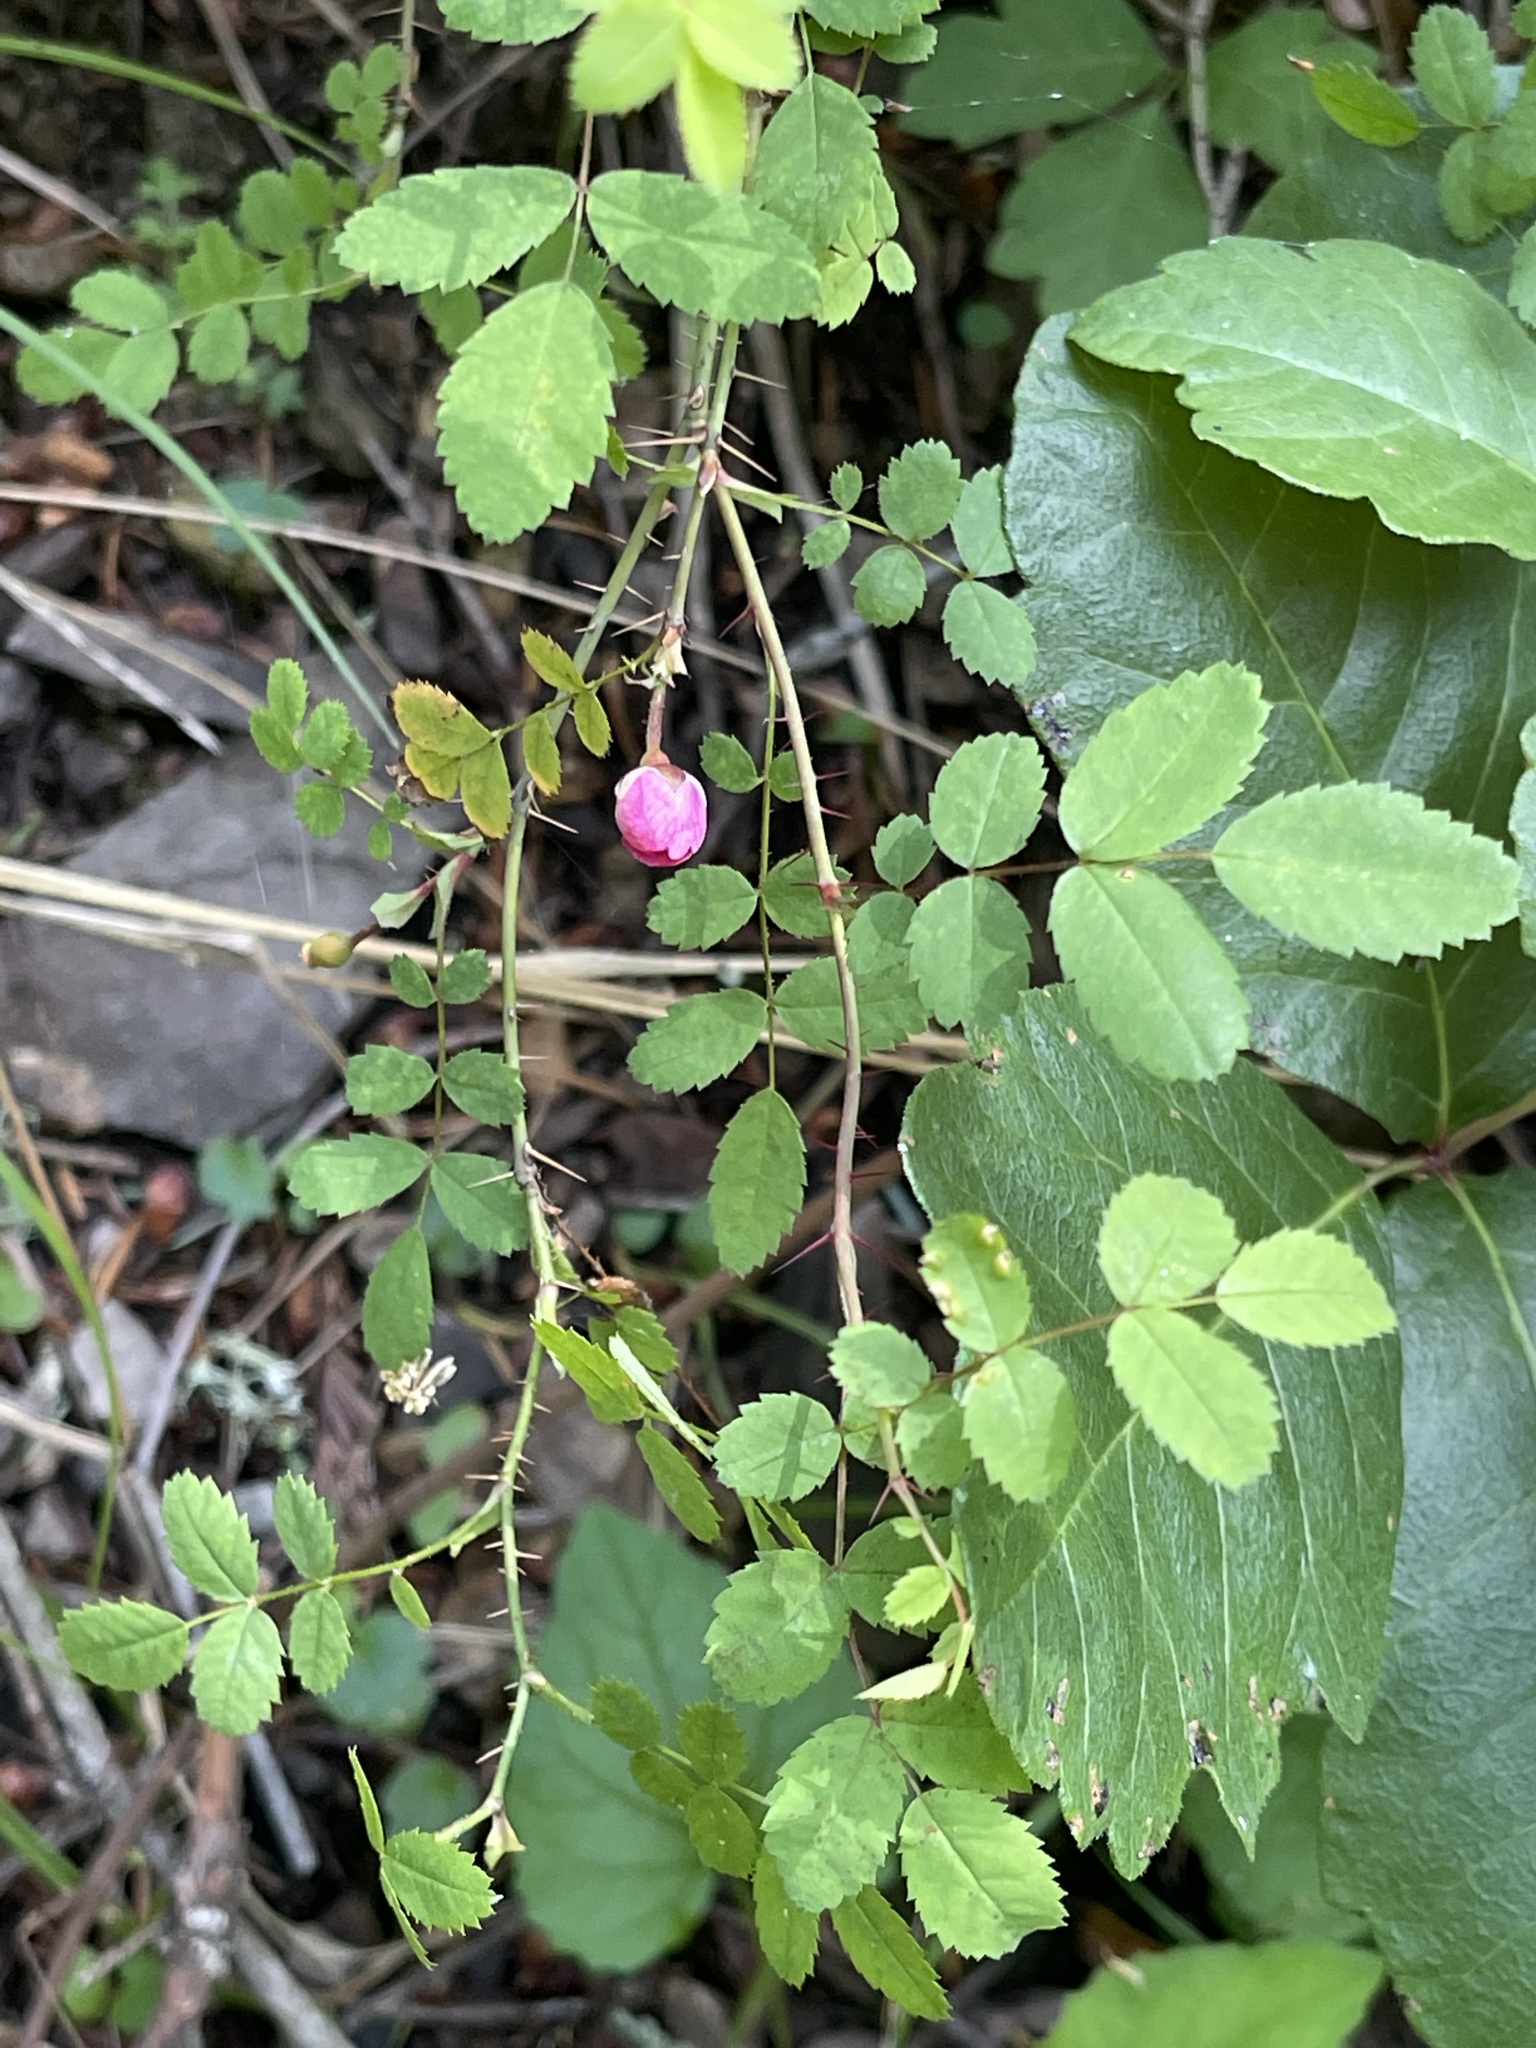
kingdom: Plantae
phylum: Tracheophyta
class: Magnoliopsida
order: Rosales
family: Rosaceae
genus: Rosa
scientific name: Rosa gymnocarpa
